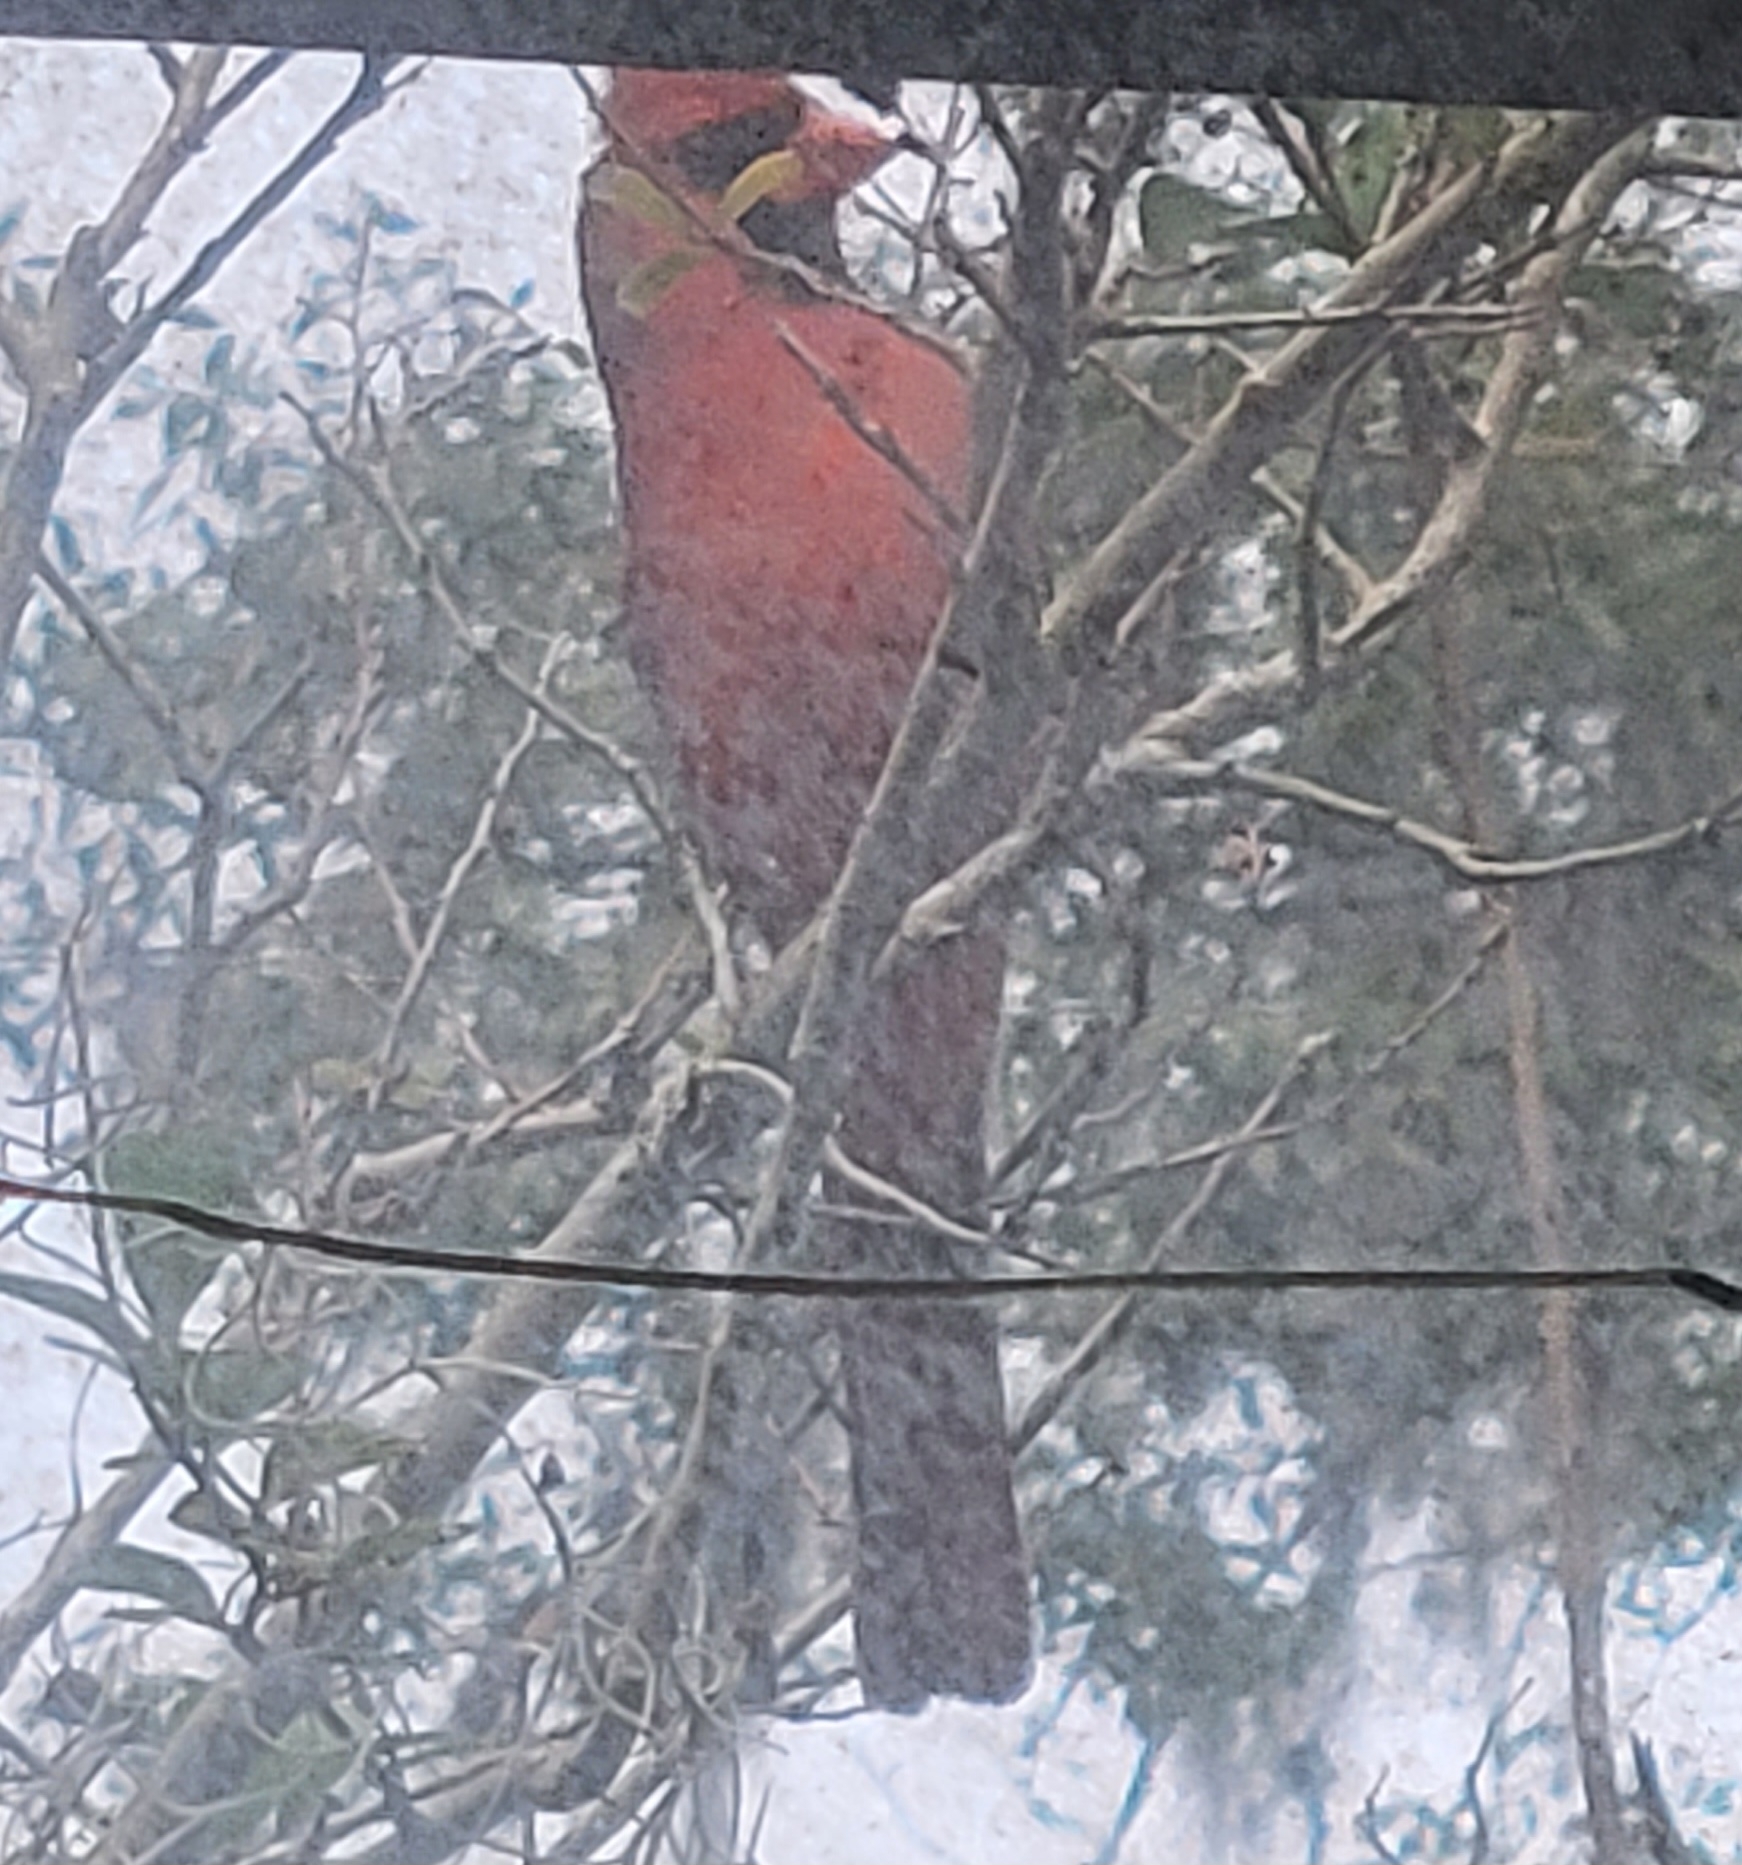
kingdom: Animalia
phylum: Chordata
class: Aves
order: Passeriformes
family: Cardinalidae
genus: Cardinalis
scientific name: Cardinalis cardinalis
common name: Northern cardinal
